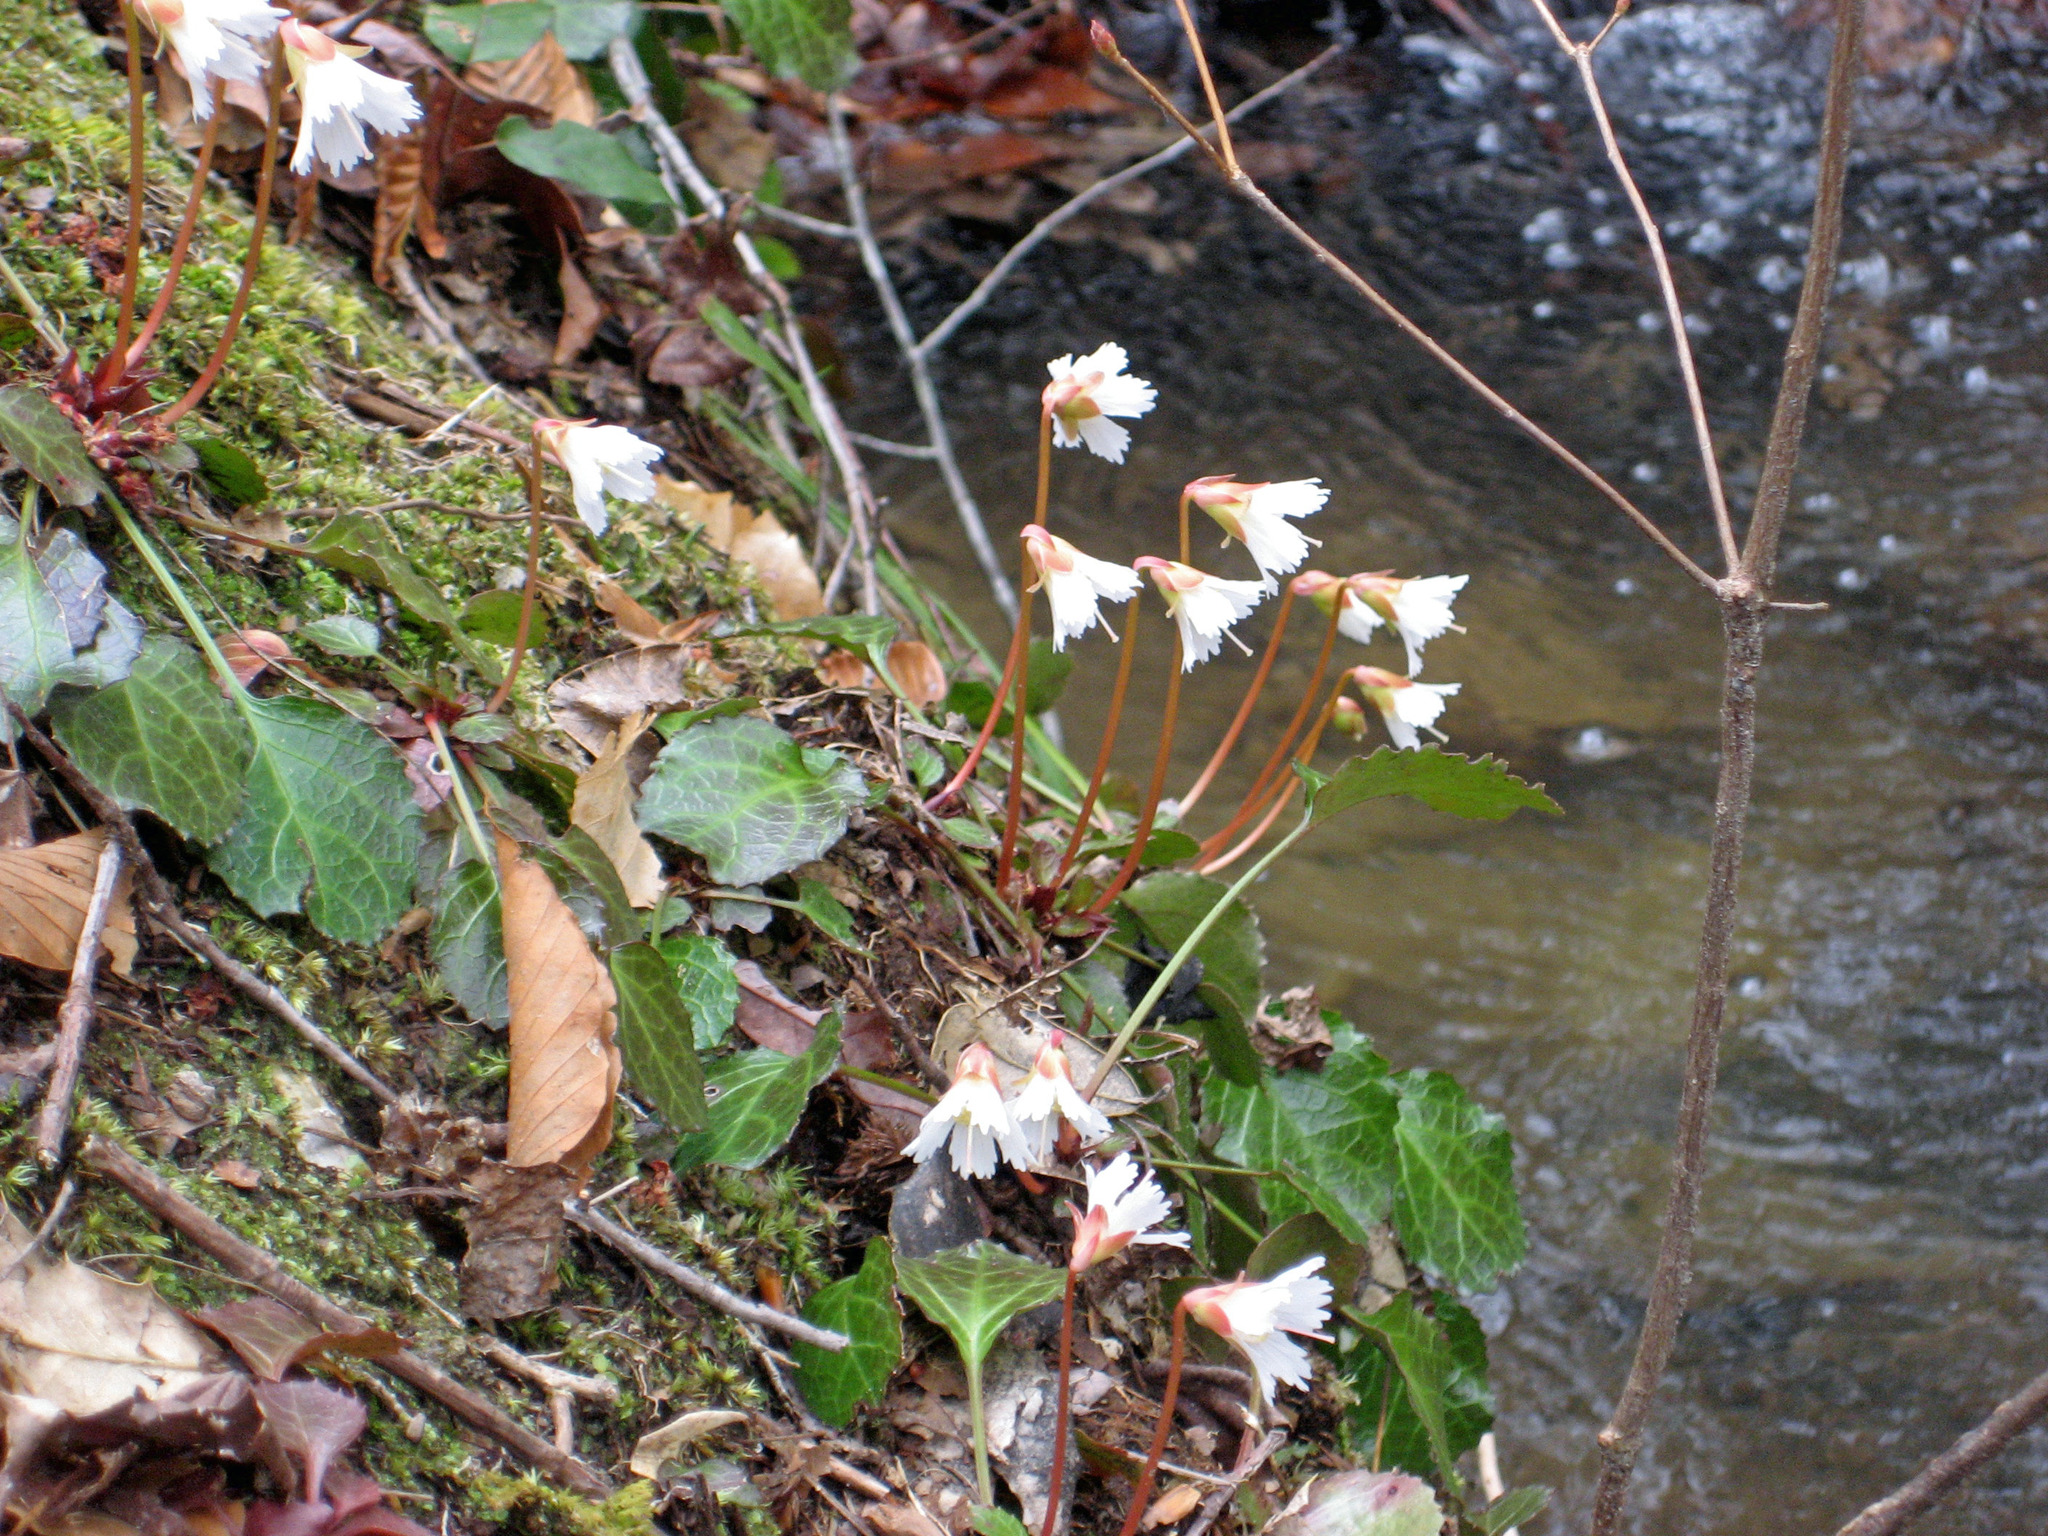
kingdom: Plantae
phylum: Tracheophyta
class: Magnoliopsida
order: Ericales
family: Diapensiaceae
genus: Shortia
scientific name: Shortia galacifolia
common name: Shortia
